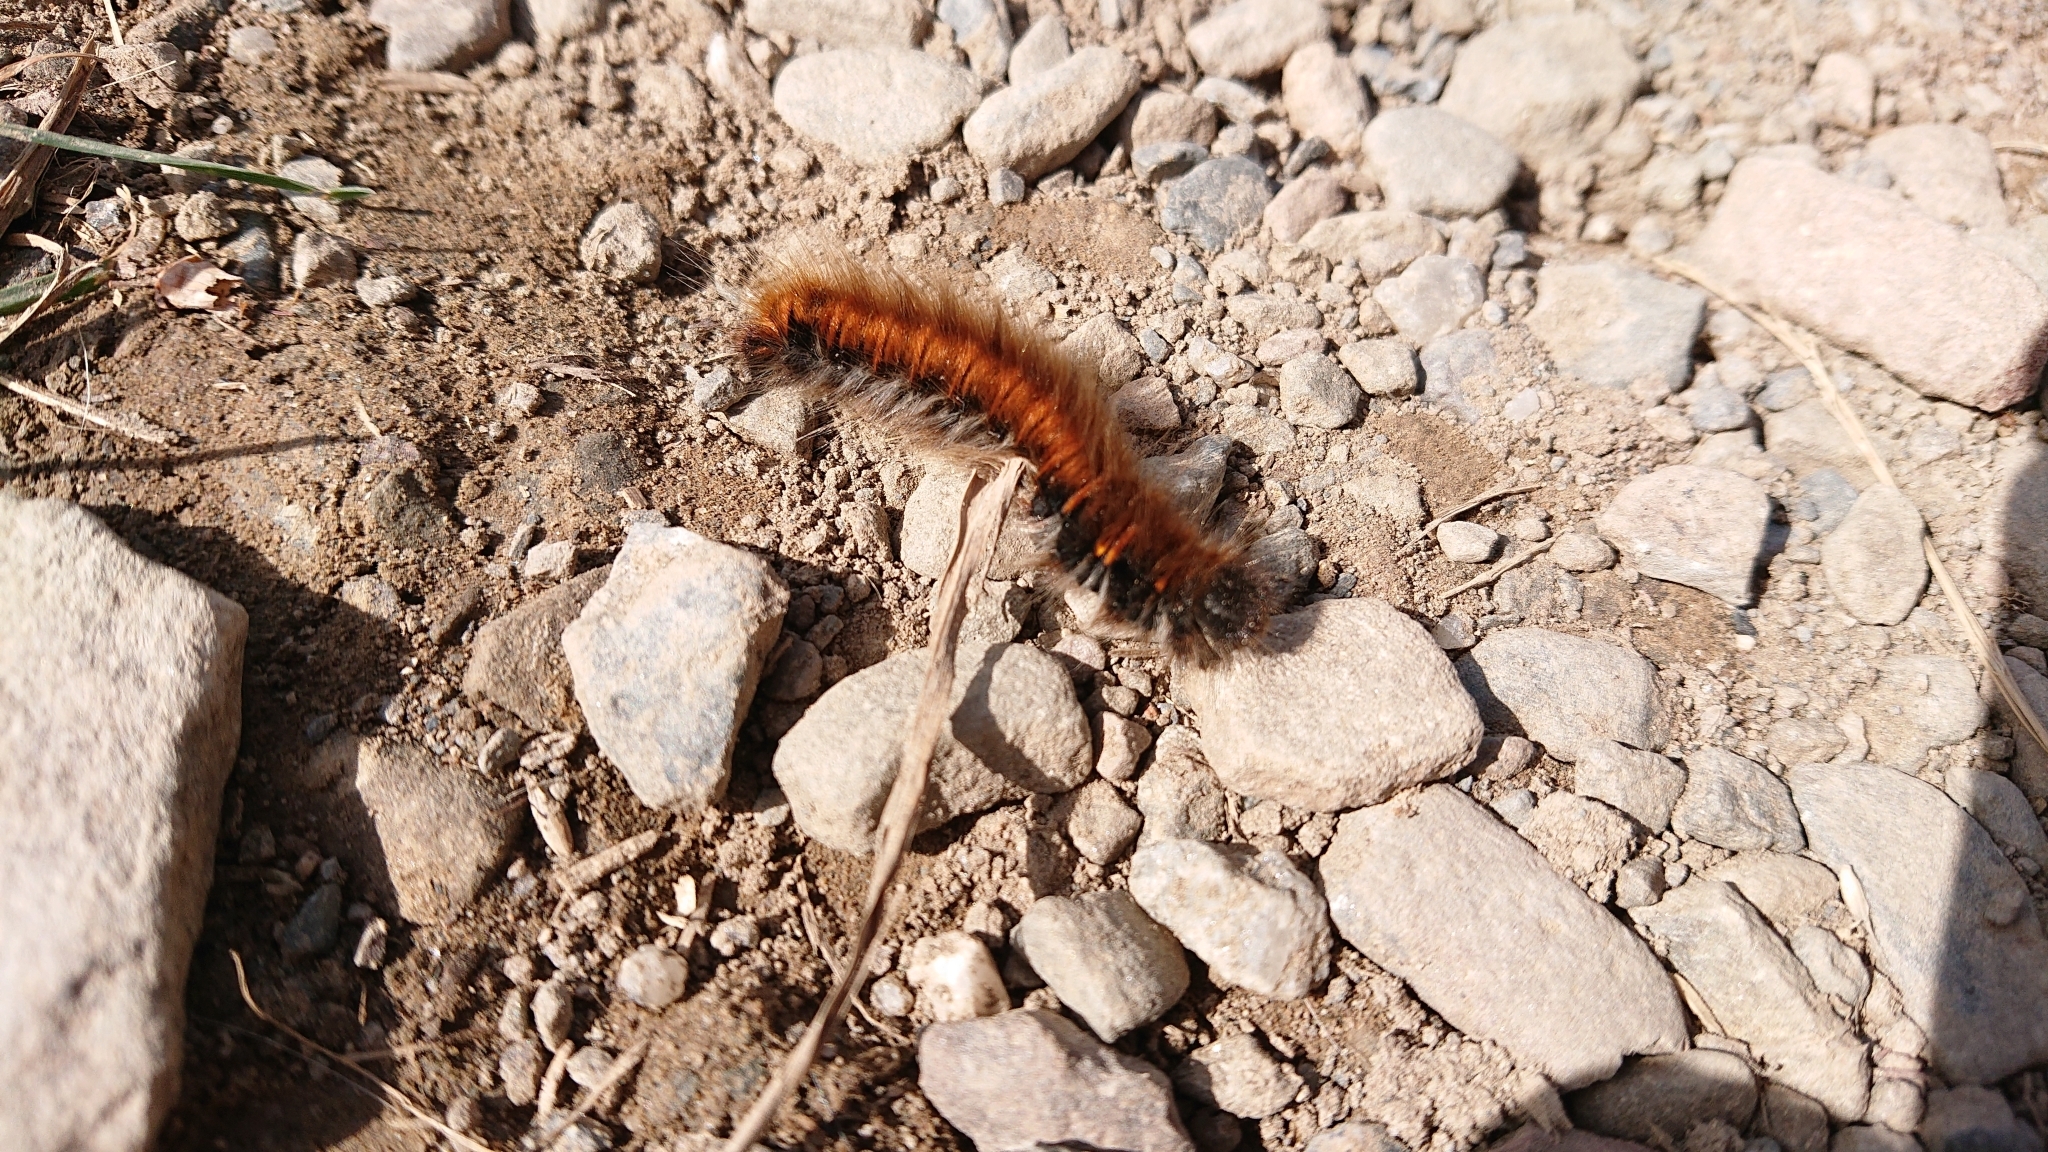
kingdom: Animalia
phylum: Arthropoda
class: Insecta
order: Lepidoptera
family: Lasiocampidae
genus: Macrothylacia
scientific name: Macrothylacia rubi
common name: Fox moth
